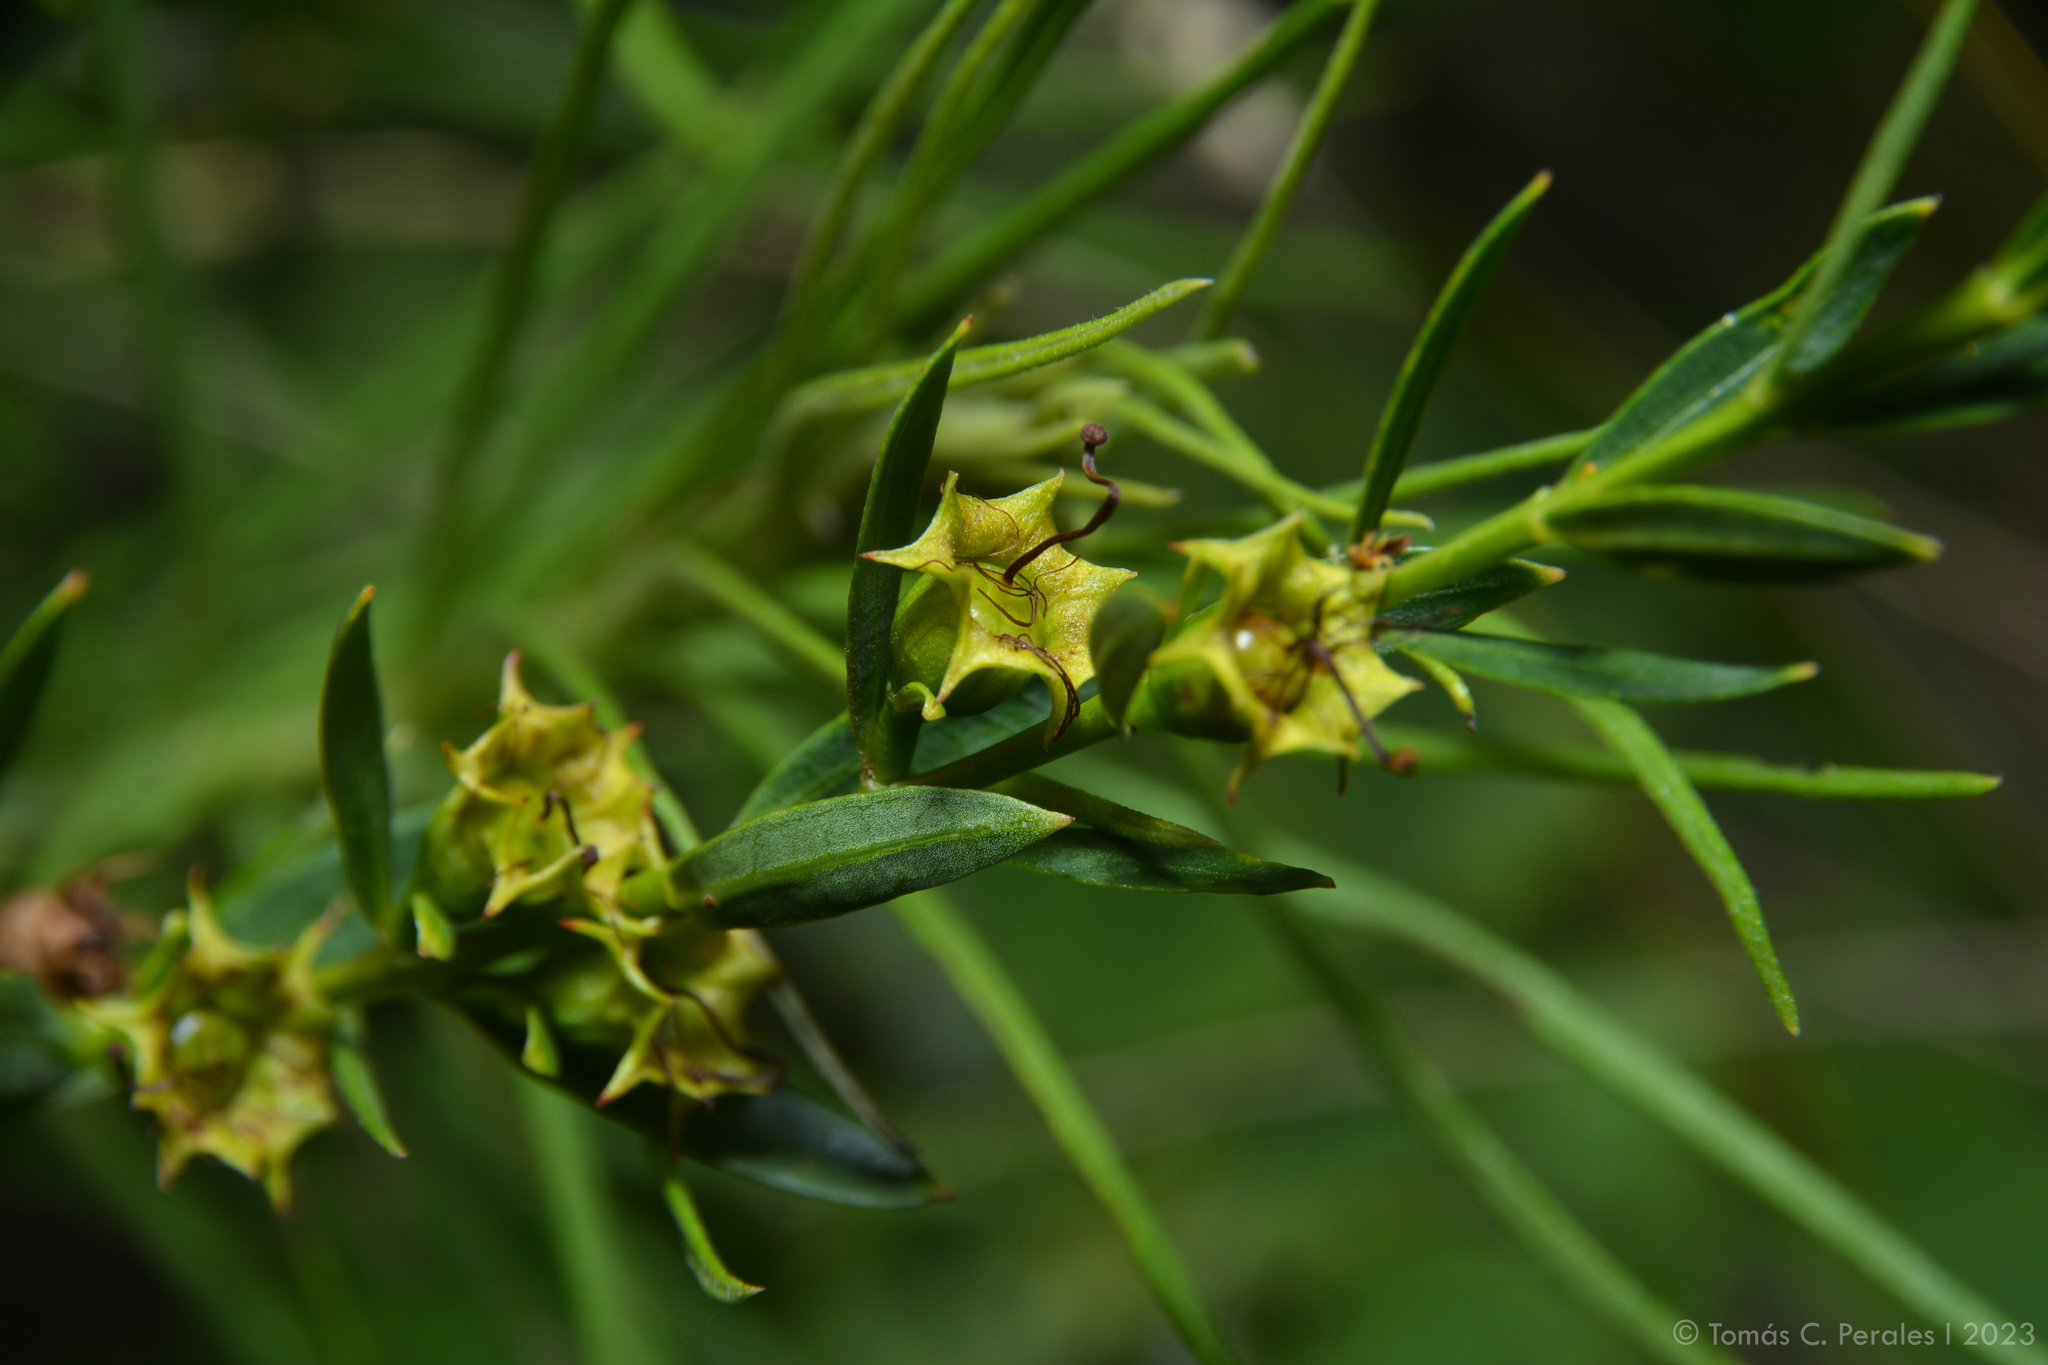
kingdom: Plantae
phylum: Tracheophyta
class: Magnoliopsida
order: Myrtales
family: Lythraceae
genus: Heimia
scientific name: Heimia salicifolia
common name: Willow-leaf heimia
